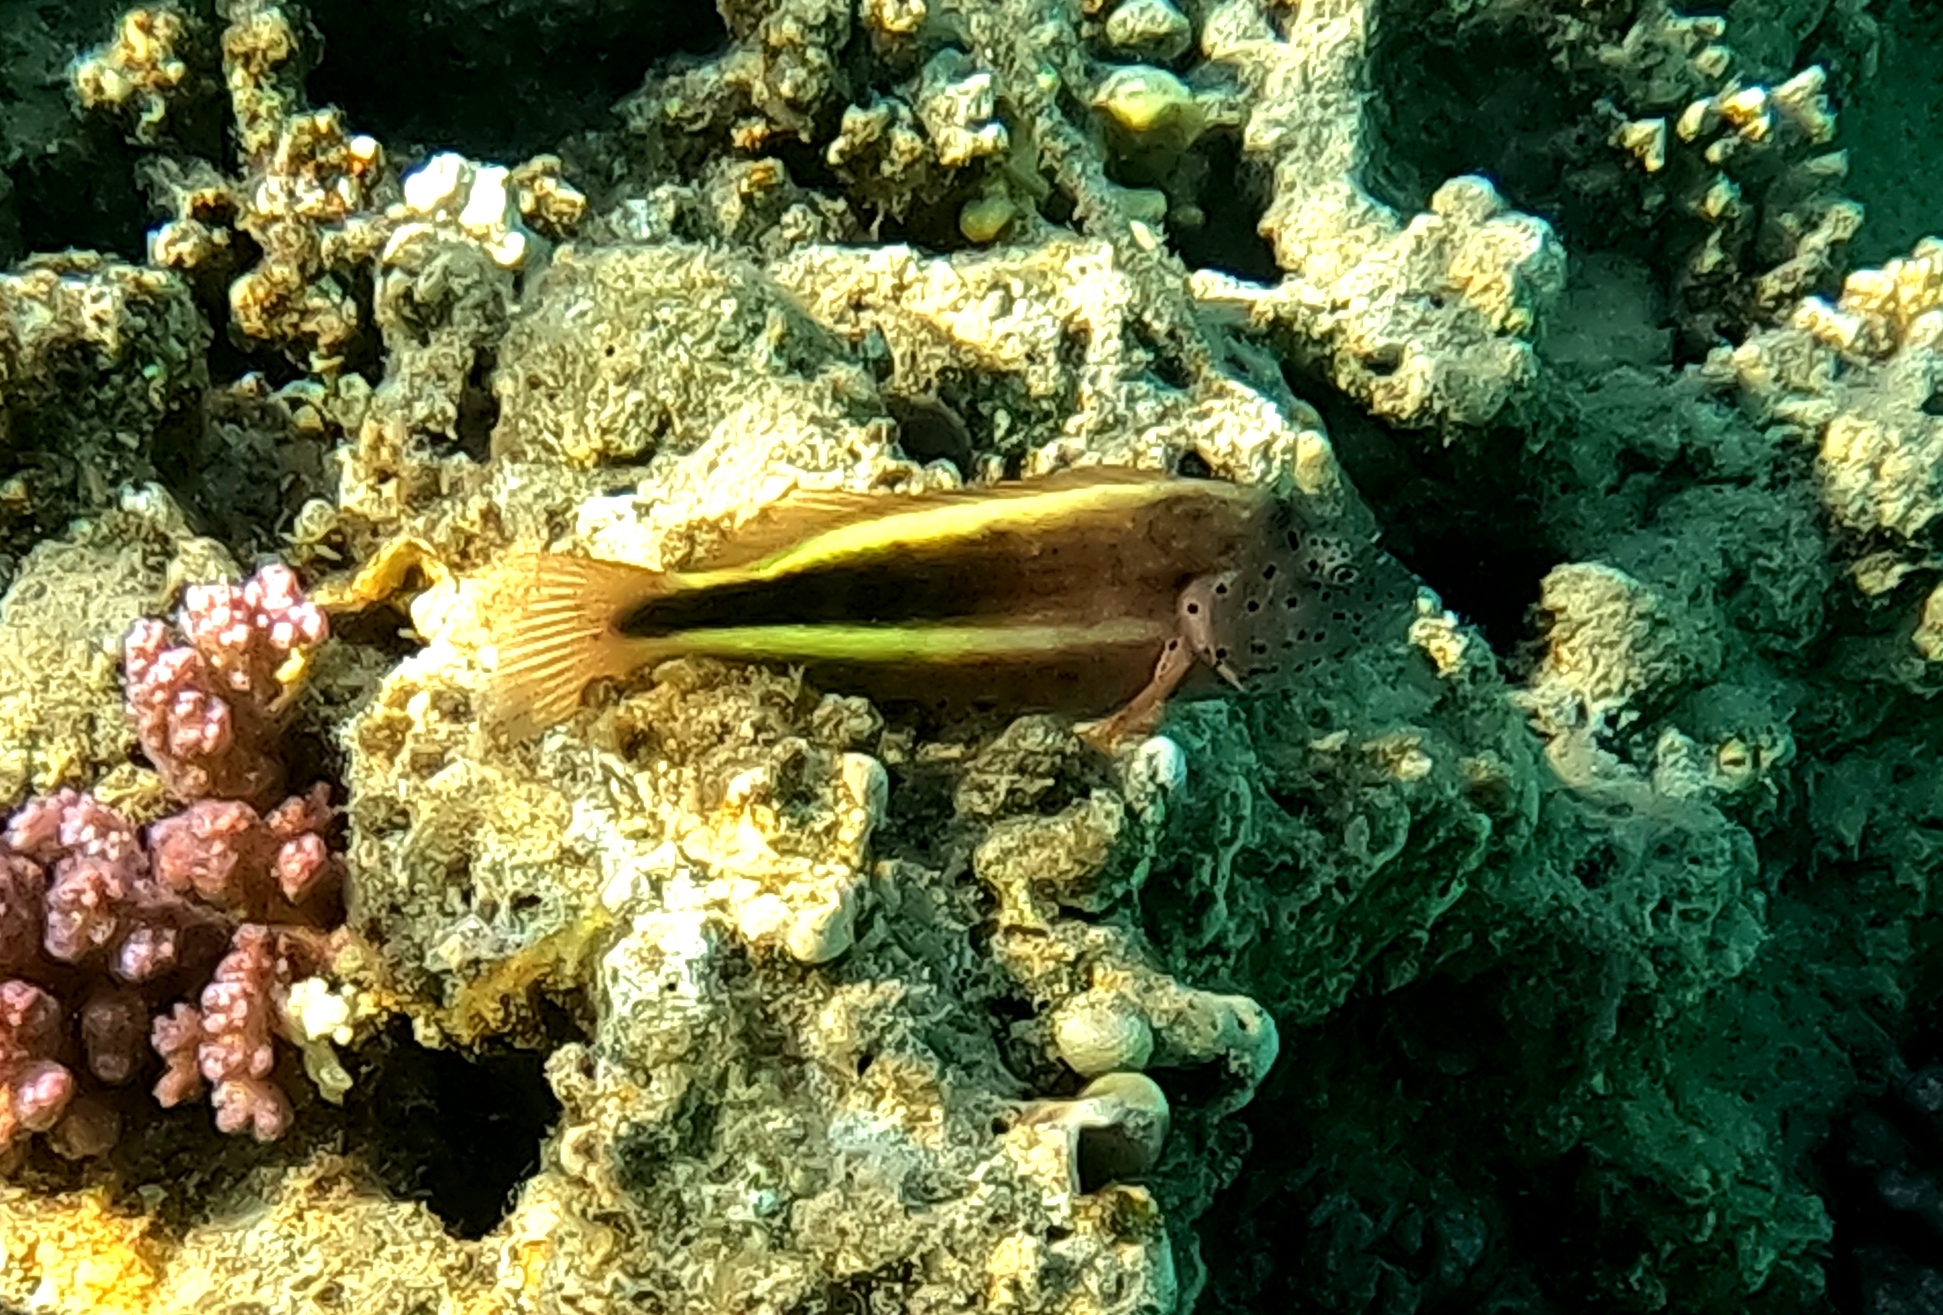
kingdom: Animalia
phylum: Chordata
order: Perciformes
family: Cirrhitidae
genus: Paracirrhites
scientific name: Paracirrhites forsteri
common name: Freckled hawkfish
